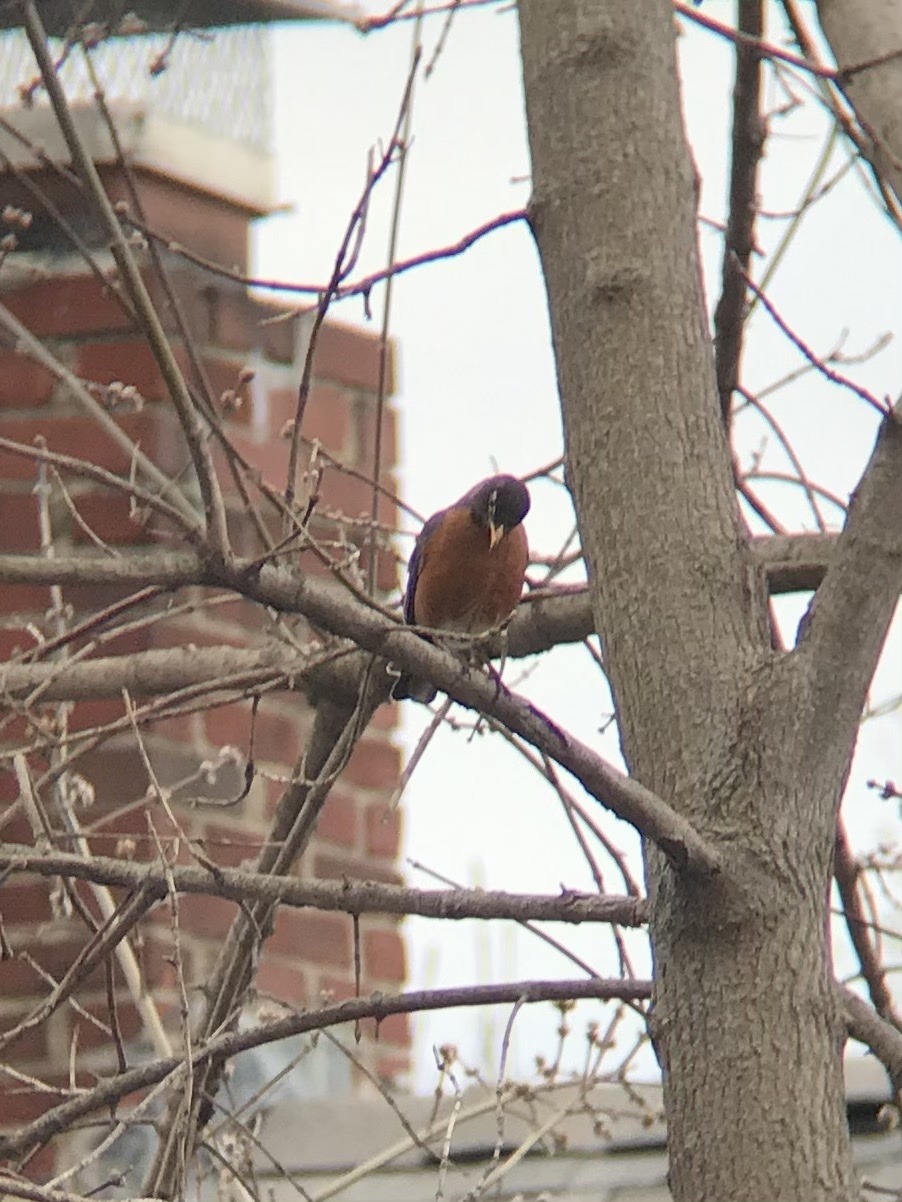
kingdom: Animalia
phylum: Chordata
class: Aves
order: Passeriformes
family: Turdidae
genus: Turdus
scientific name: Turdus migratorius
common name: American robin
